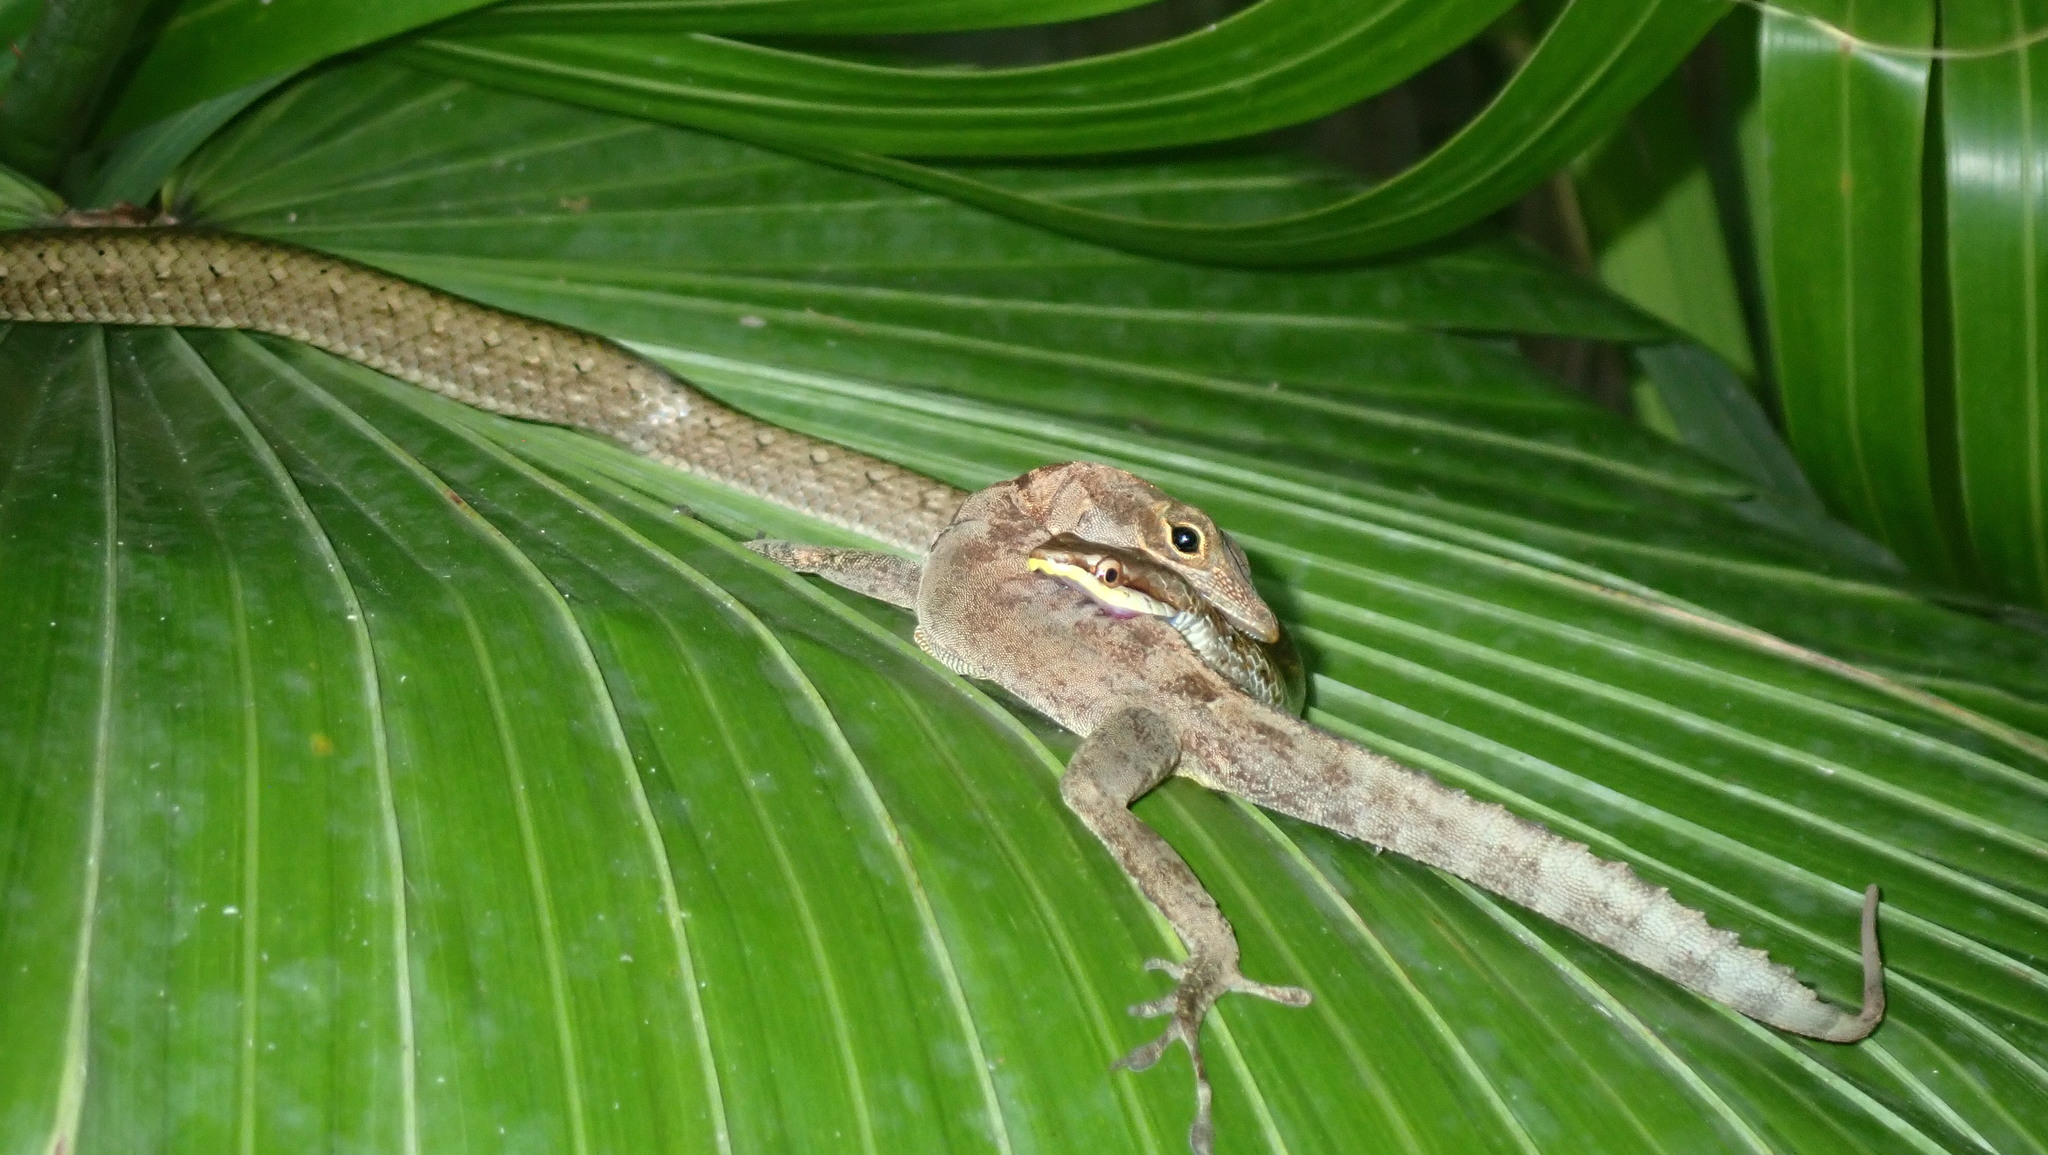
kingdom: Animalia
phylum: Chordata
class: Squamata
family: Colubridae
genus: Borikenophis
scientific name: Borikenophis portoricensis
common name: Puerto rican racer
